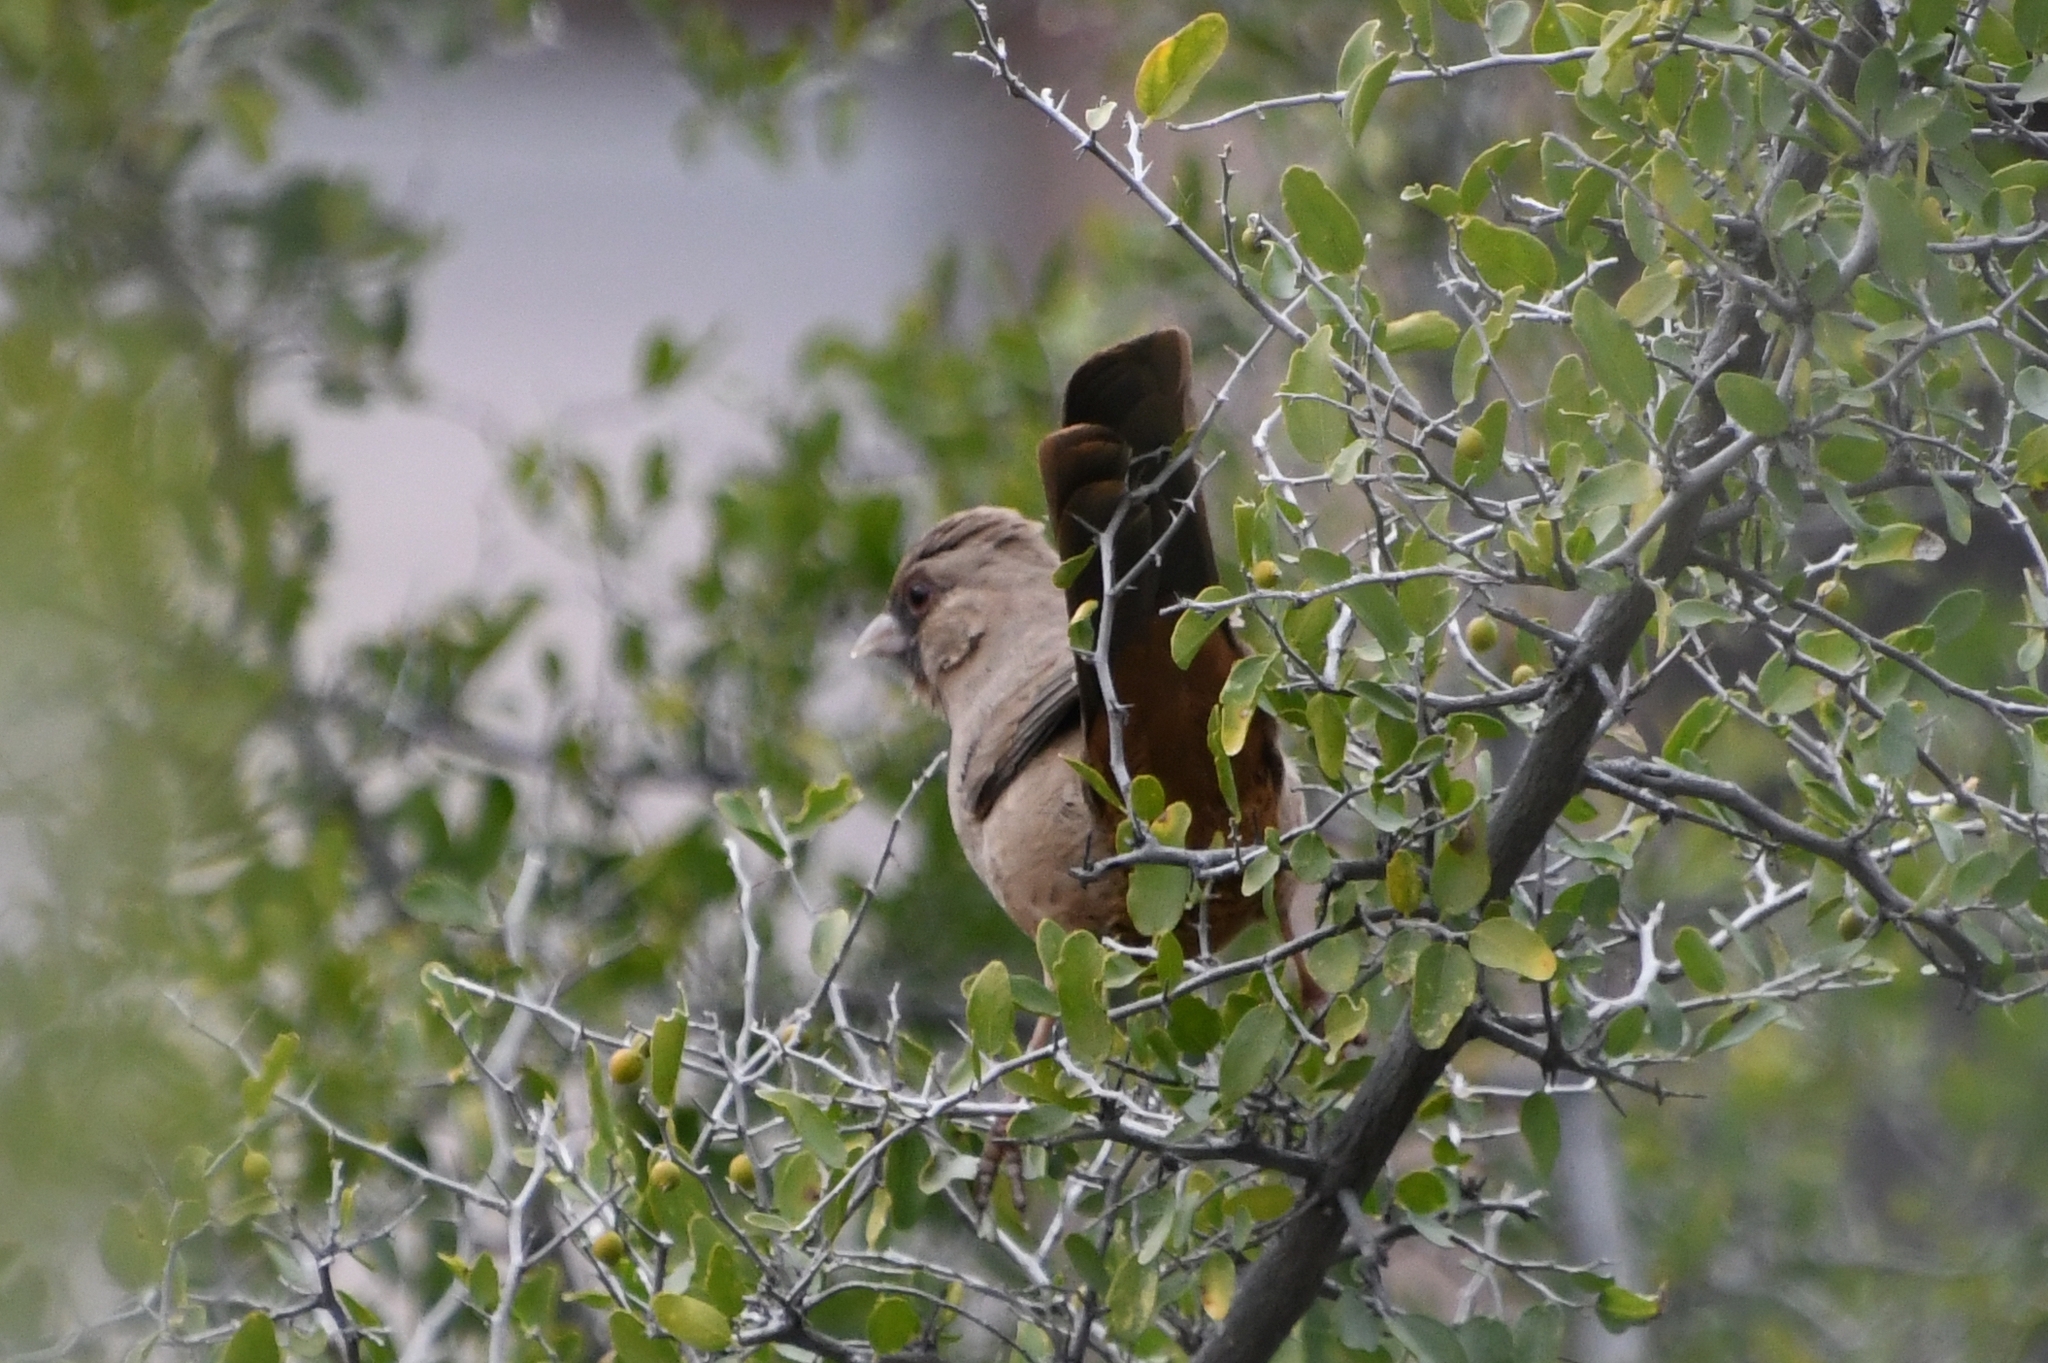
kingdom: Animalia
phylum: Chordata
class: Aves
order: Passeriformes
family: Passerellidae
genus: Melozone
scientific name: Melozone aberti
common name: Abert's towhee
